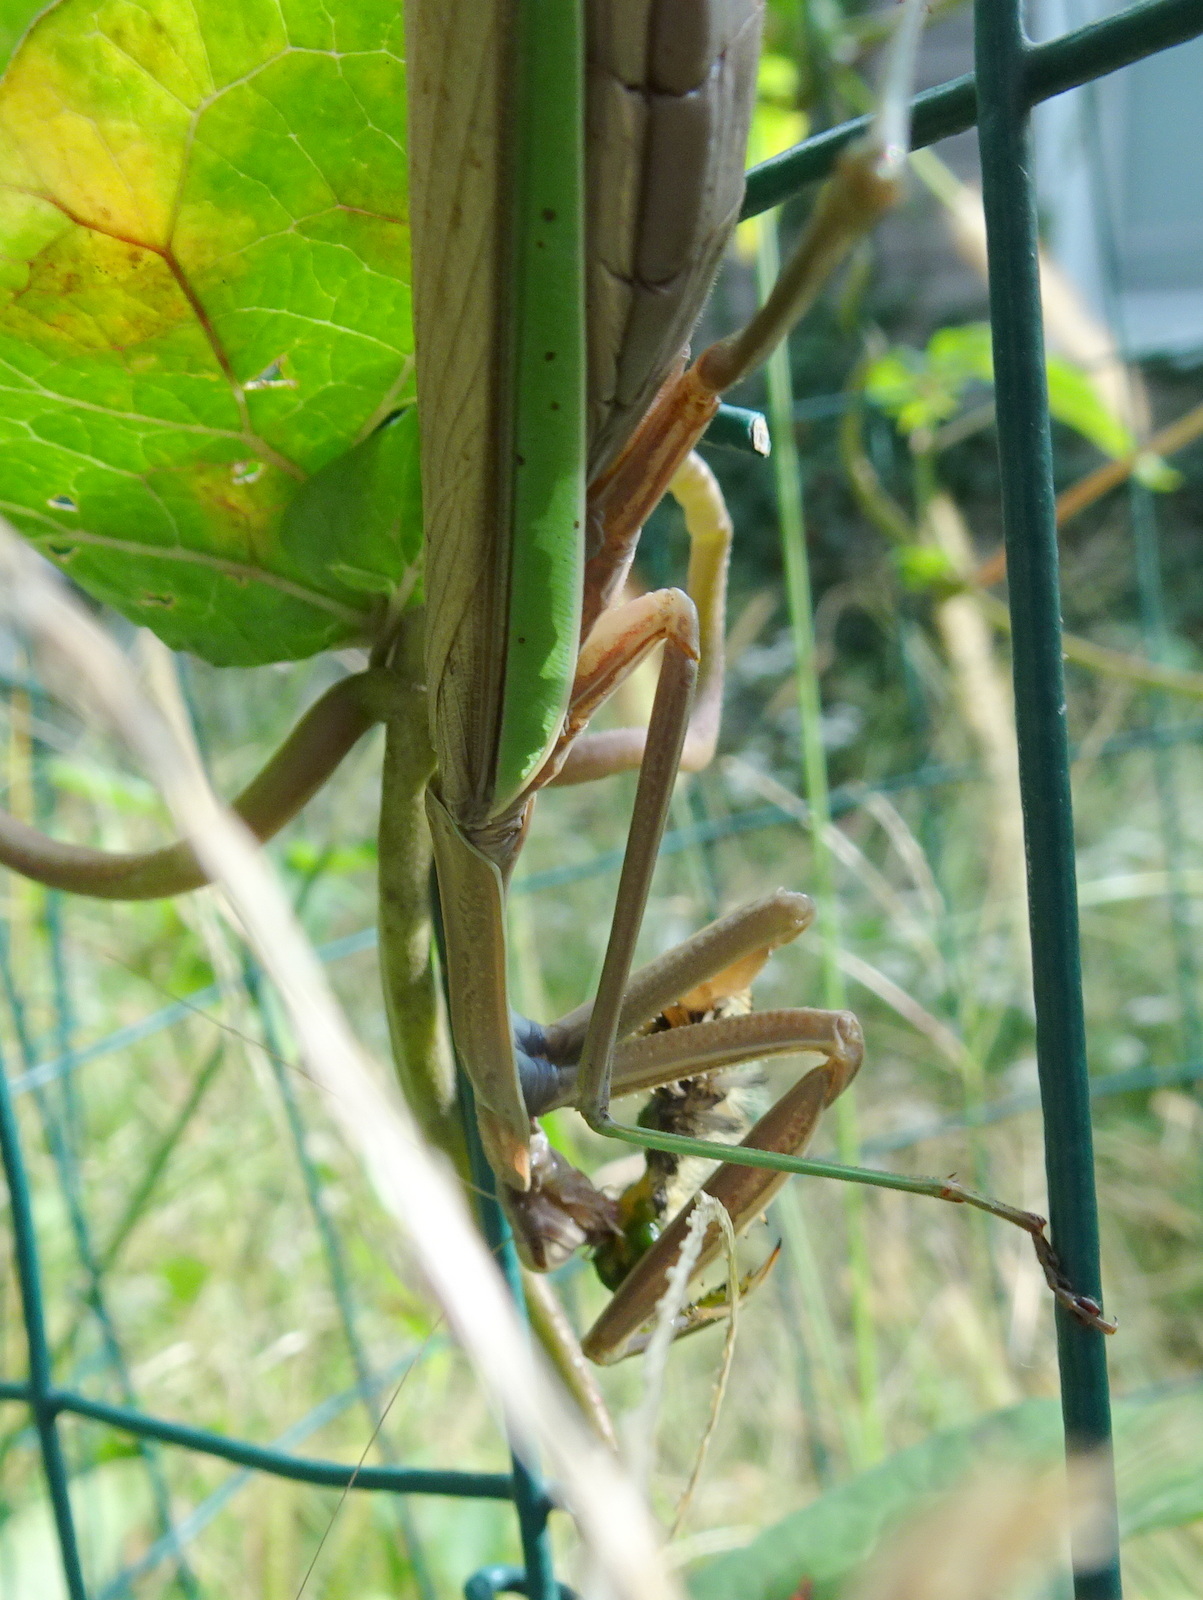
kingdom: Animalia
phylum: Arthropoda
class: Insecta
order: Lepidoptera
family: Erebidae
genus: Euchaetes
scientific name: Euchaetes egle
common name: Milkweed tussock moth
